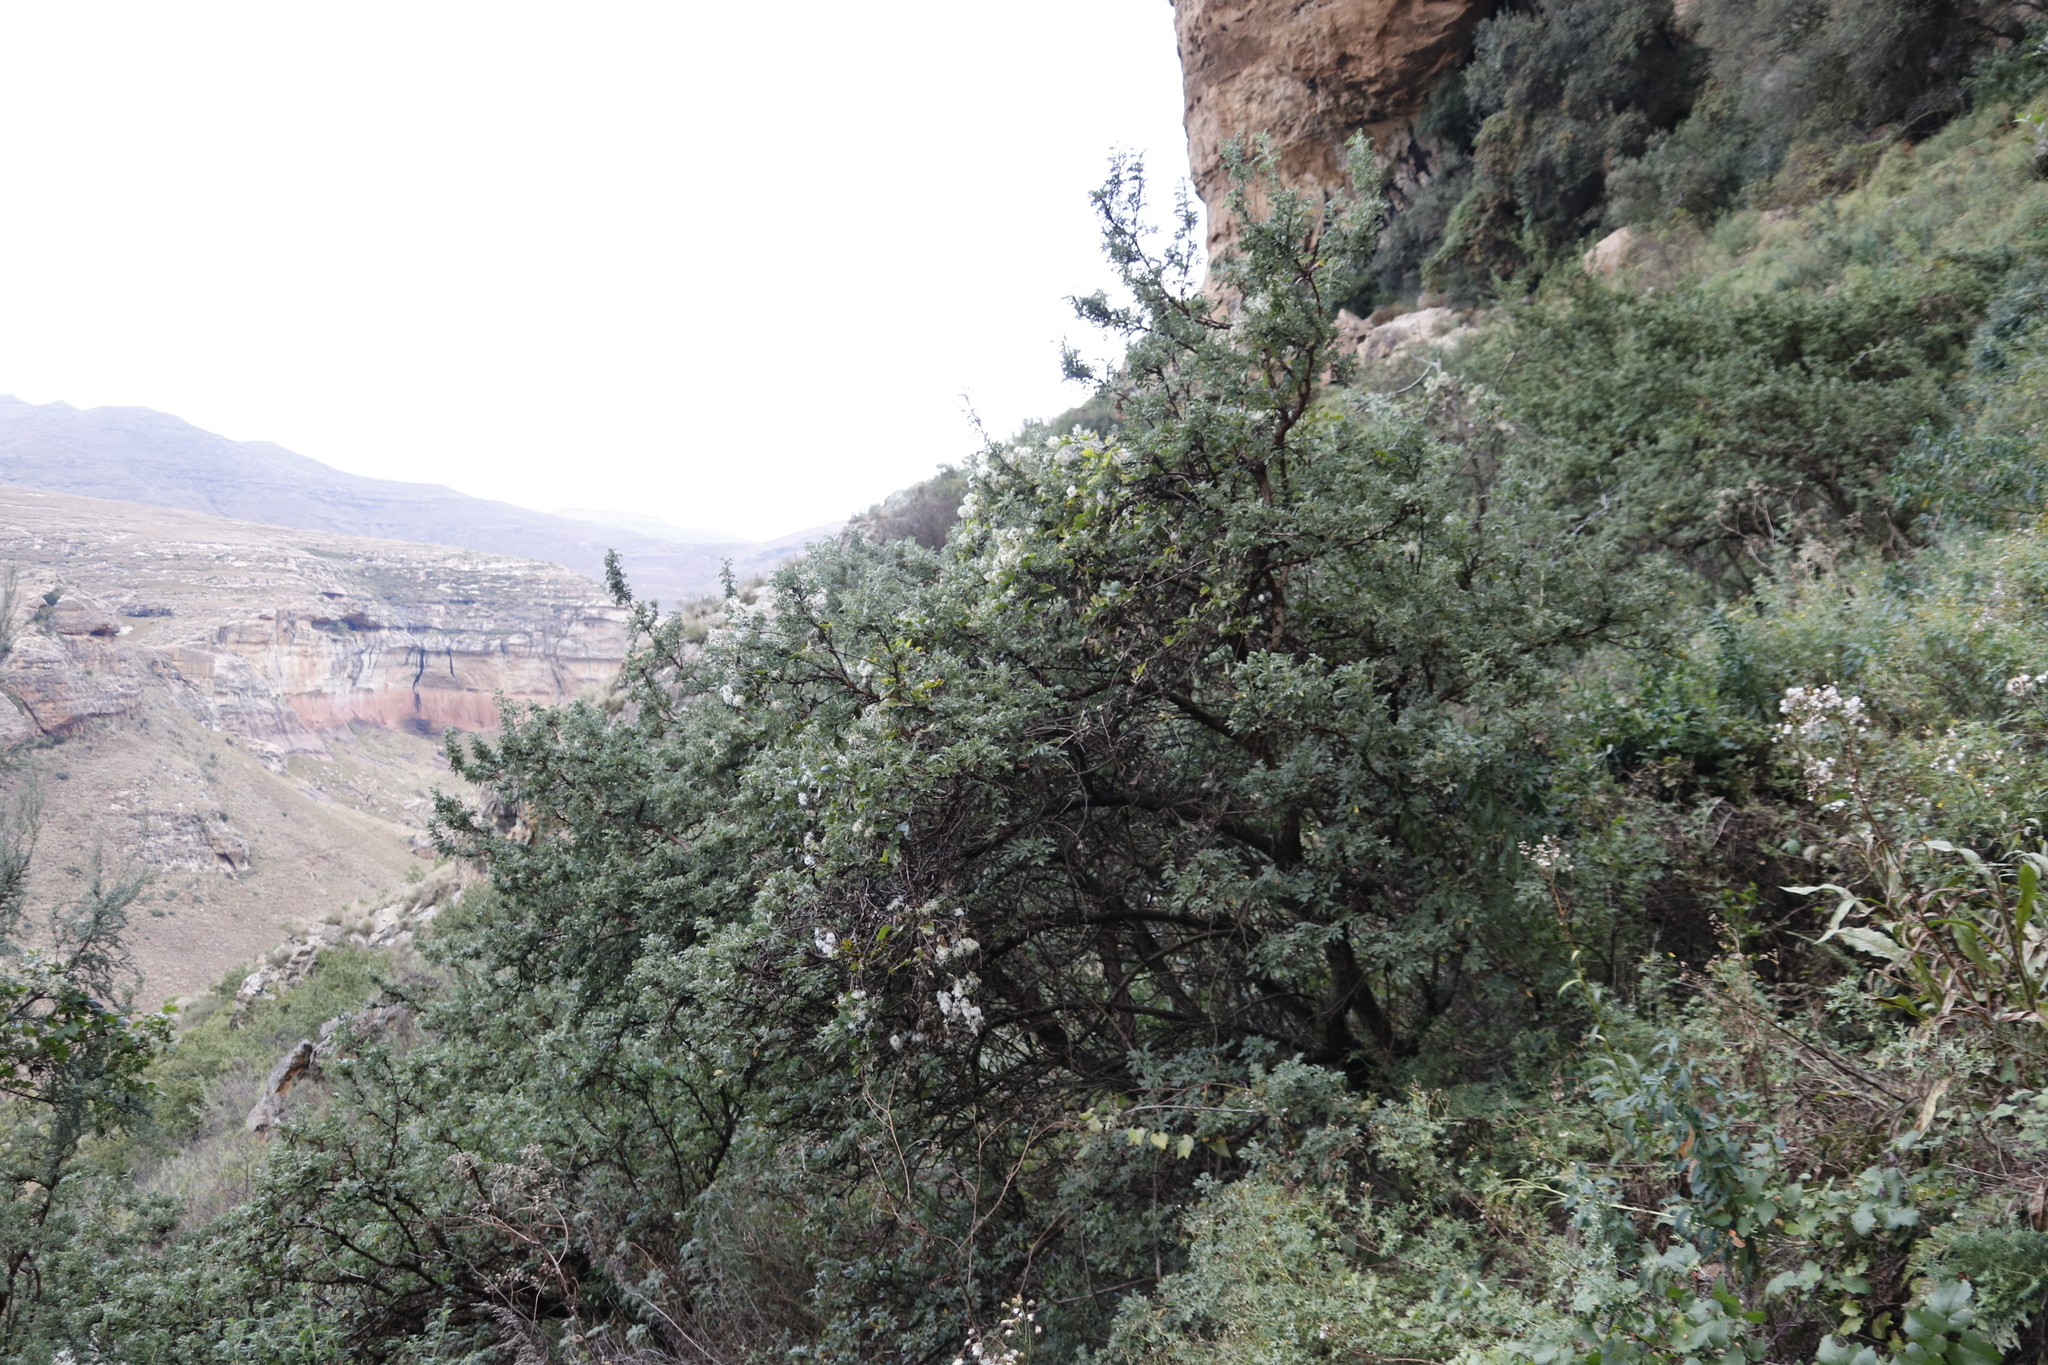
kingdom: Plantae
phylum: Tracheophyta
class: Magnoliopsida
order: Rosales
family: Rosaceae
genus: Leucosidea
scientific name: Leucosidea sericea
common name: Oldwood
